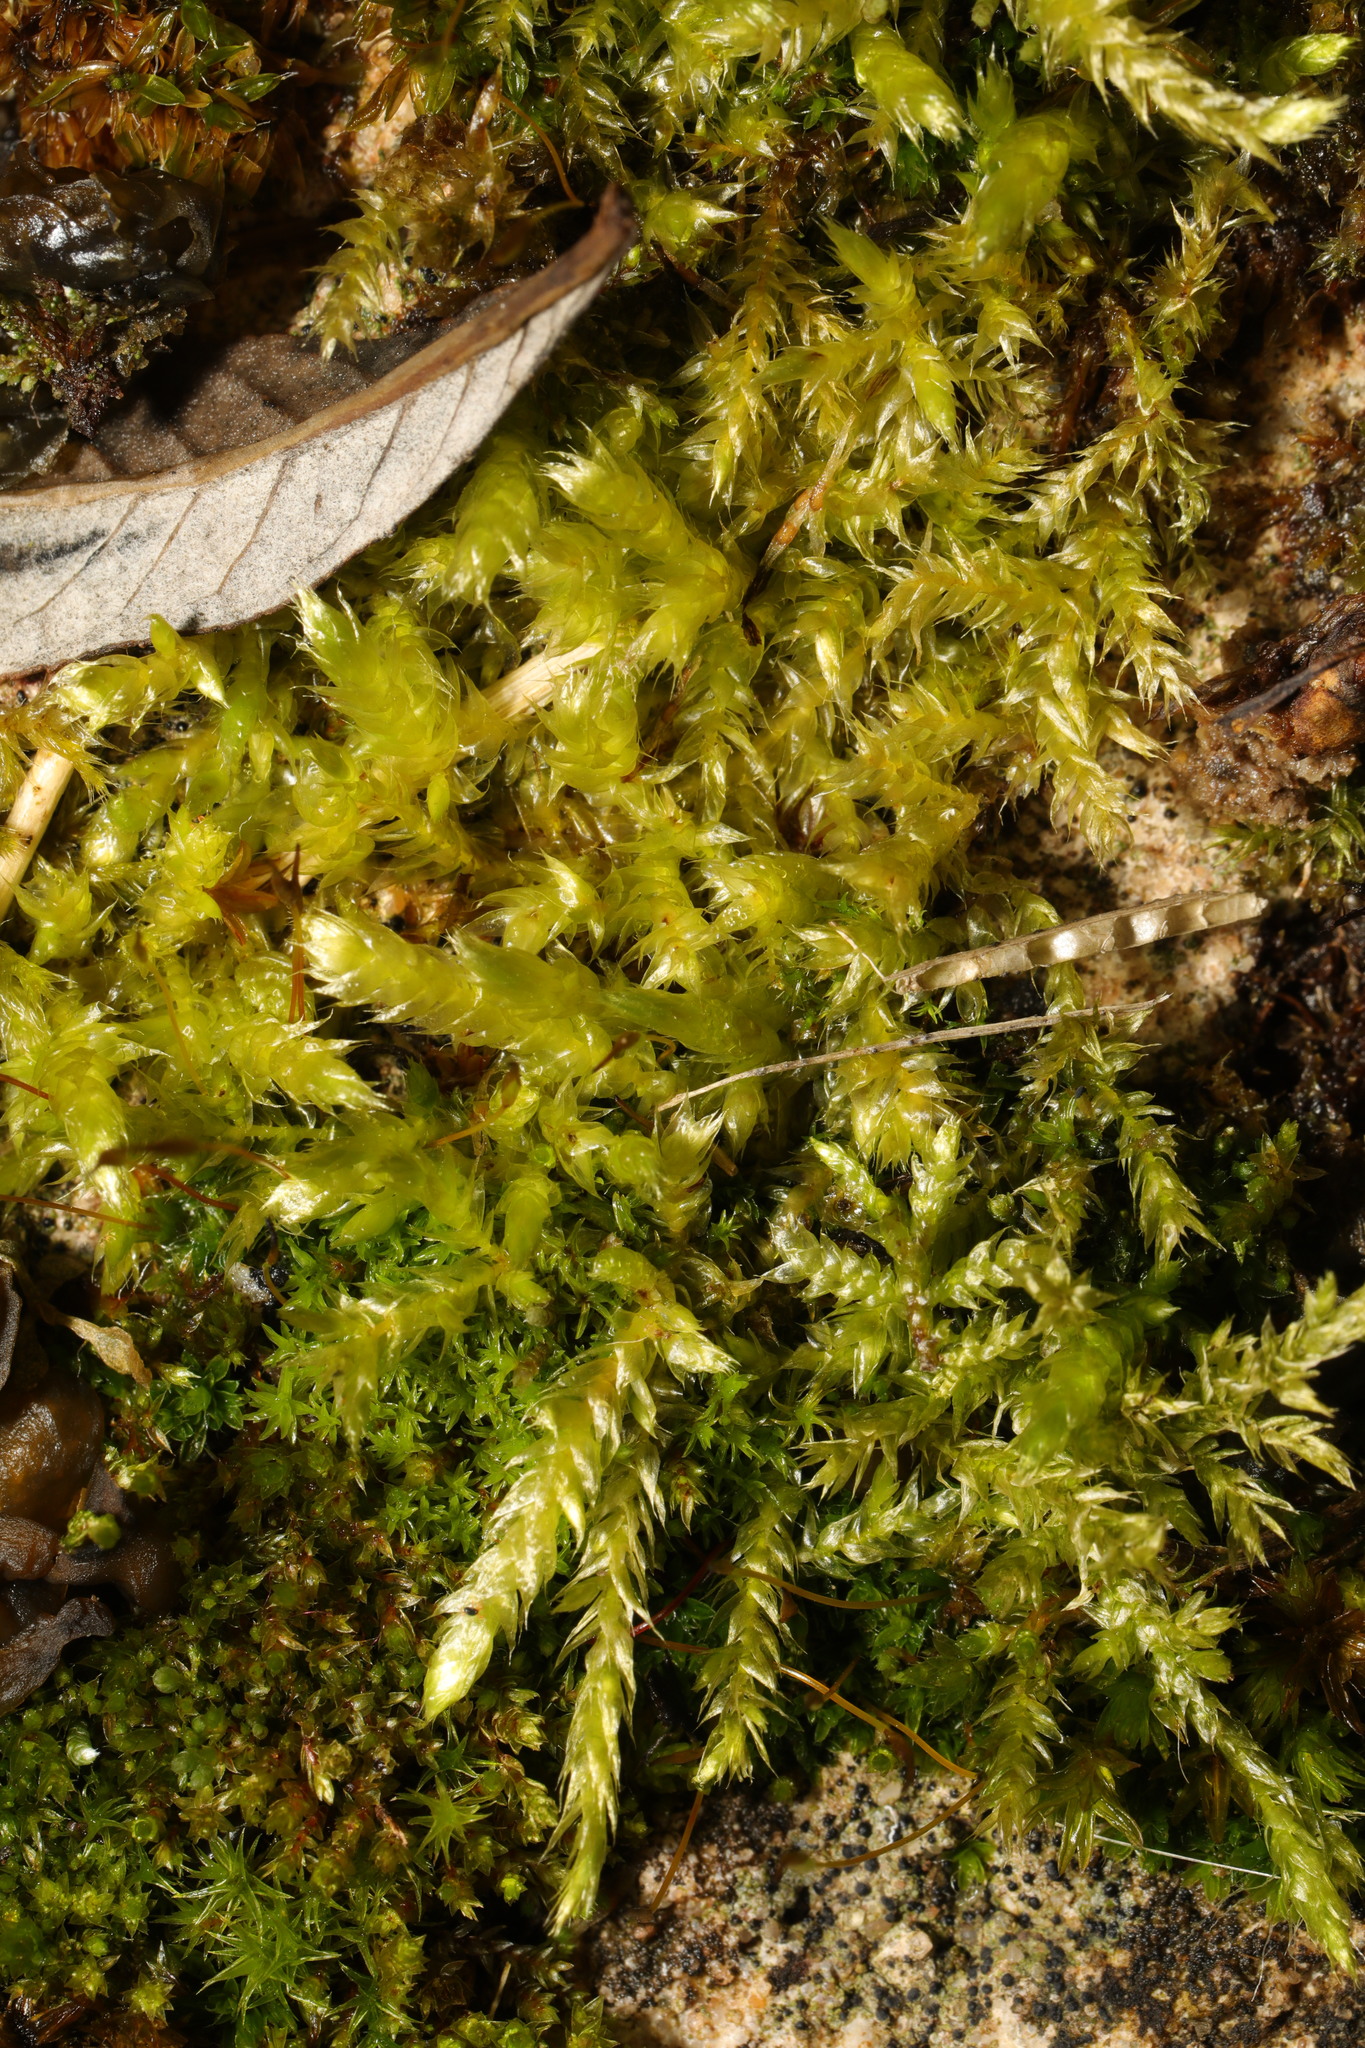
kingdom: Plantae
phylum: Bryophyta
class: Bryopsida
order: Hypnales
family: Brachytheciaceae
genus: Brachythecium
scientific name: Brachythecium rutabulum
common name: Rough-stalked feather-moss
